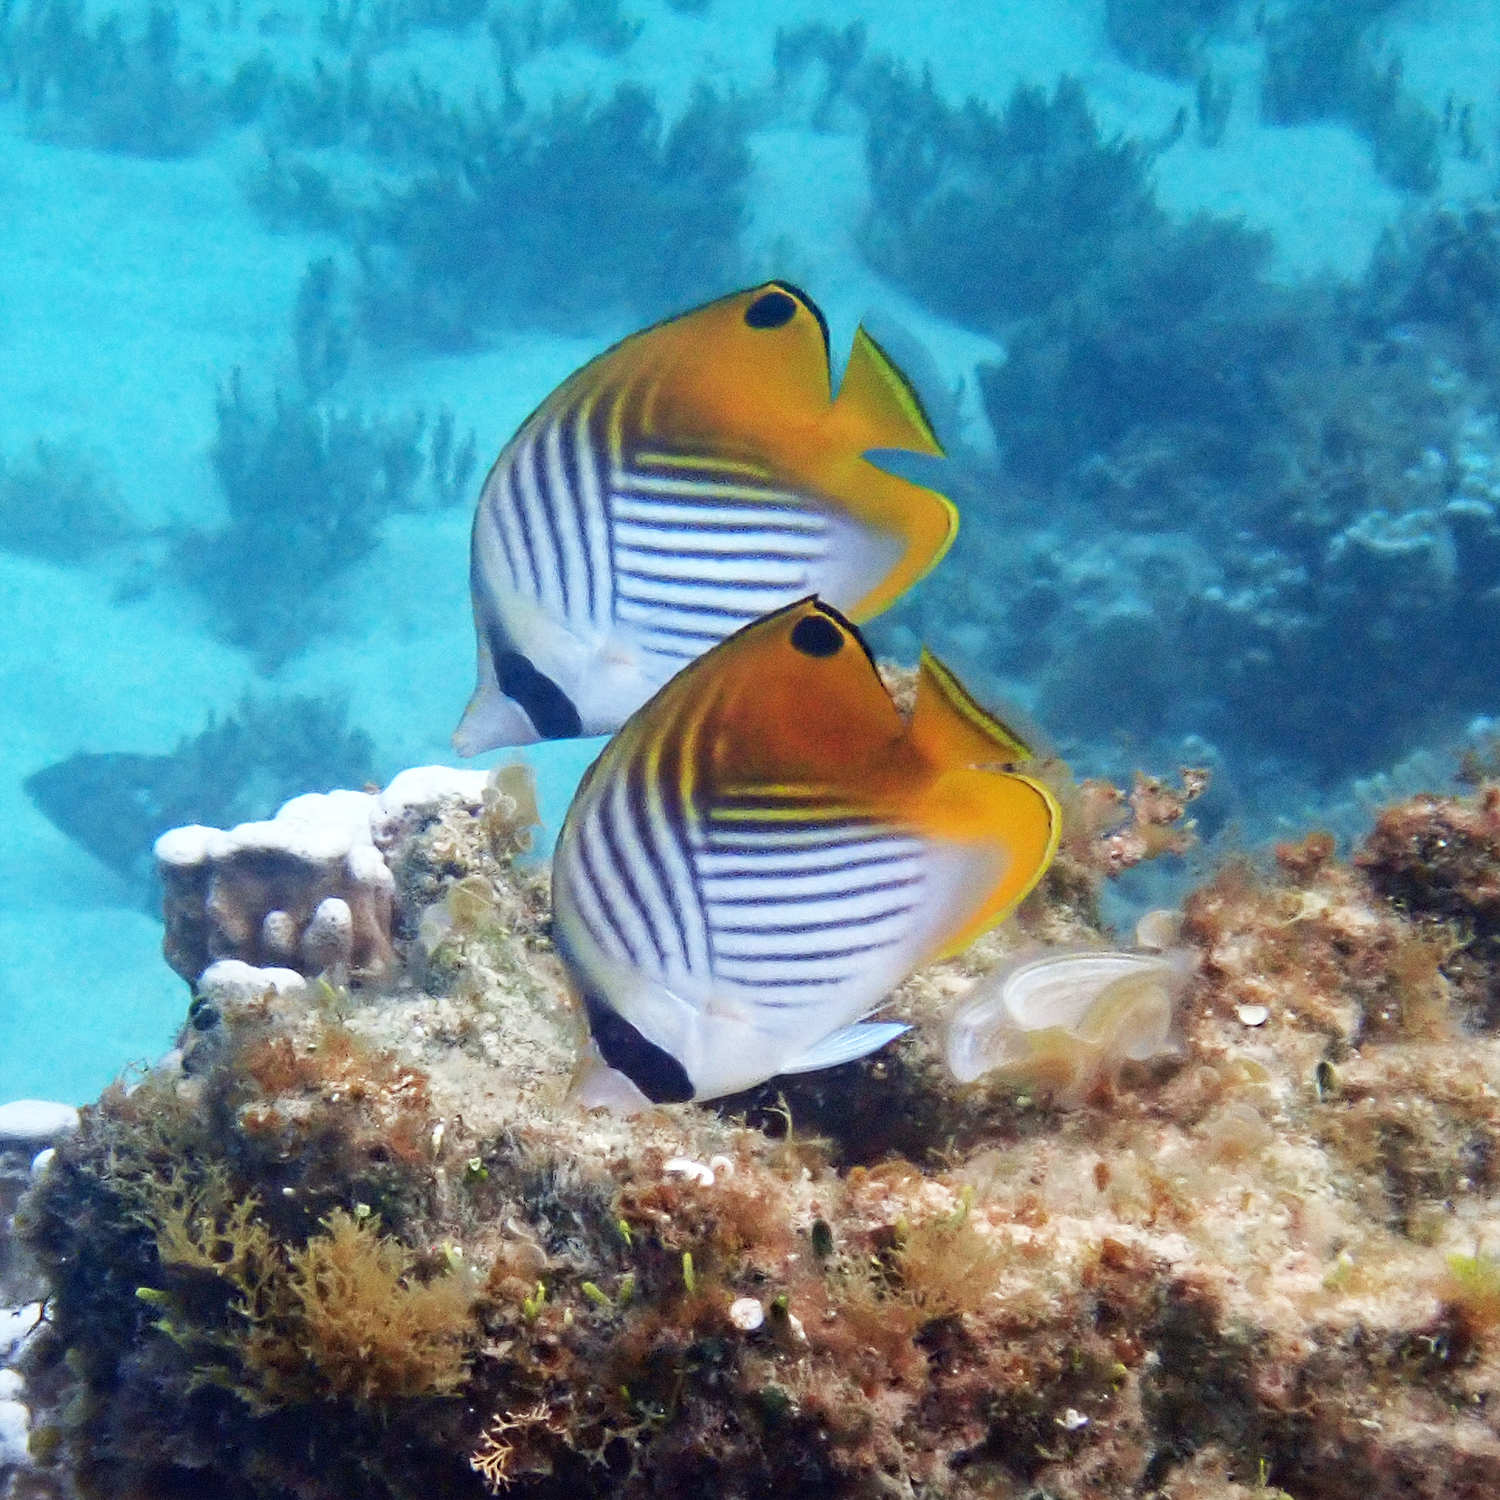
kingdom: Animalia
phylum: Chordata
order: Perciformes
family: Chaetodontidae
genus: Chaetodon
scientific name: Chaetodon auriga
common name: Threadfin butterflyfish
